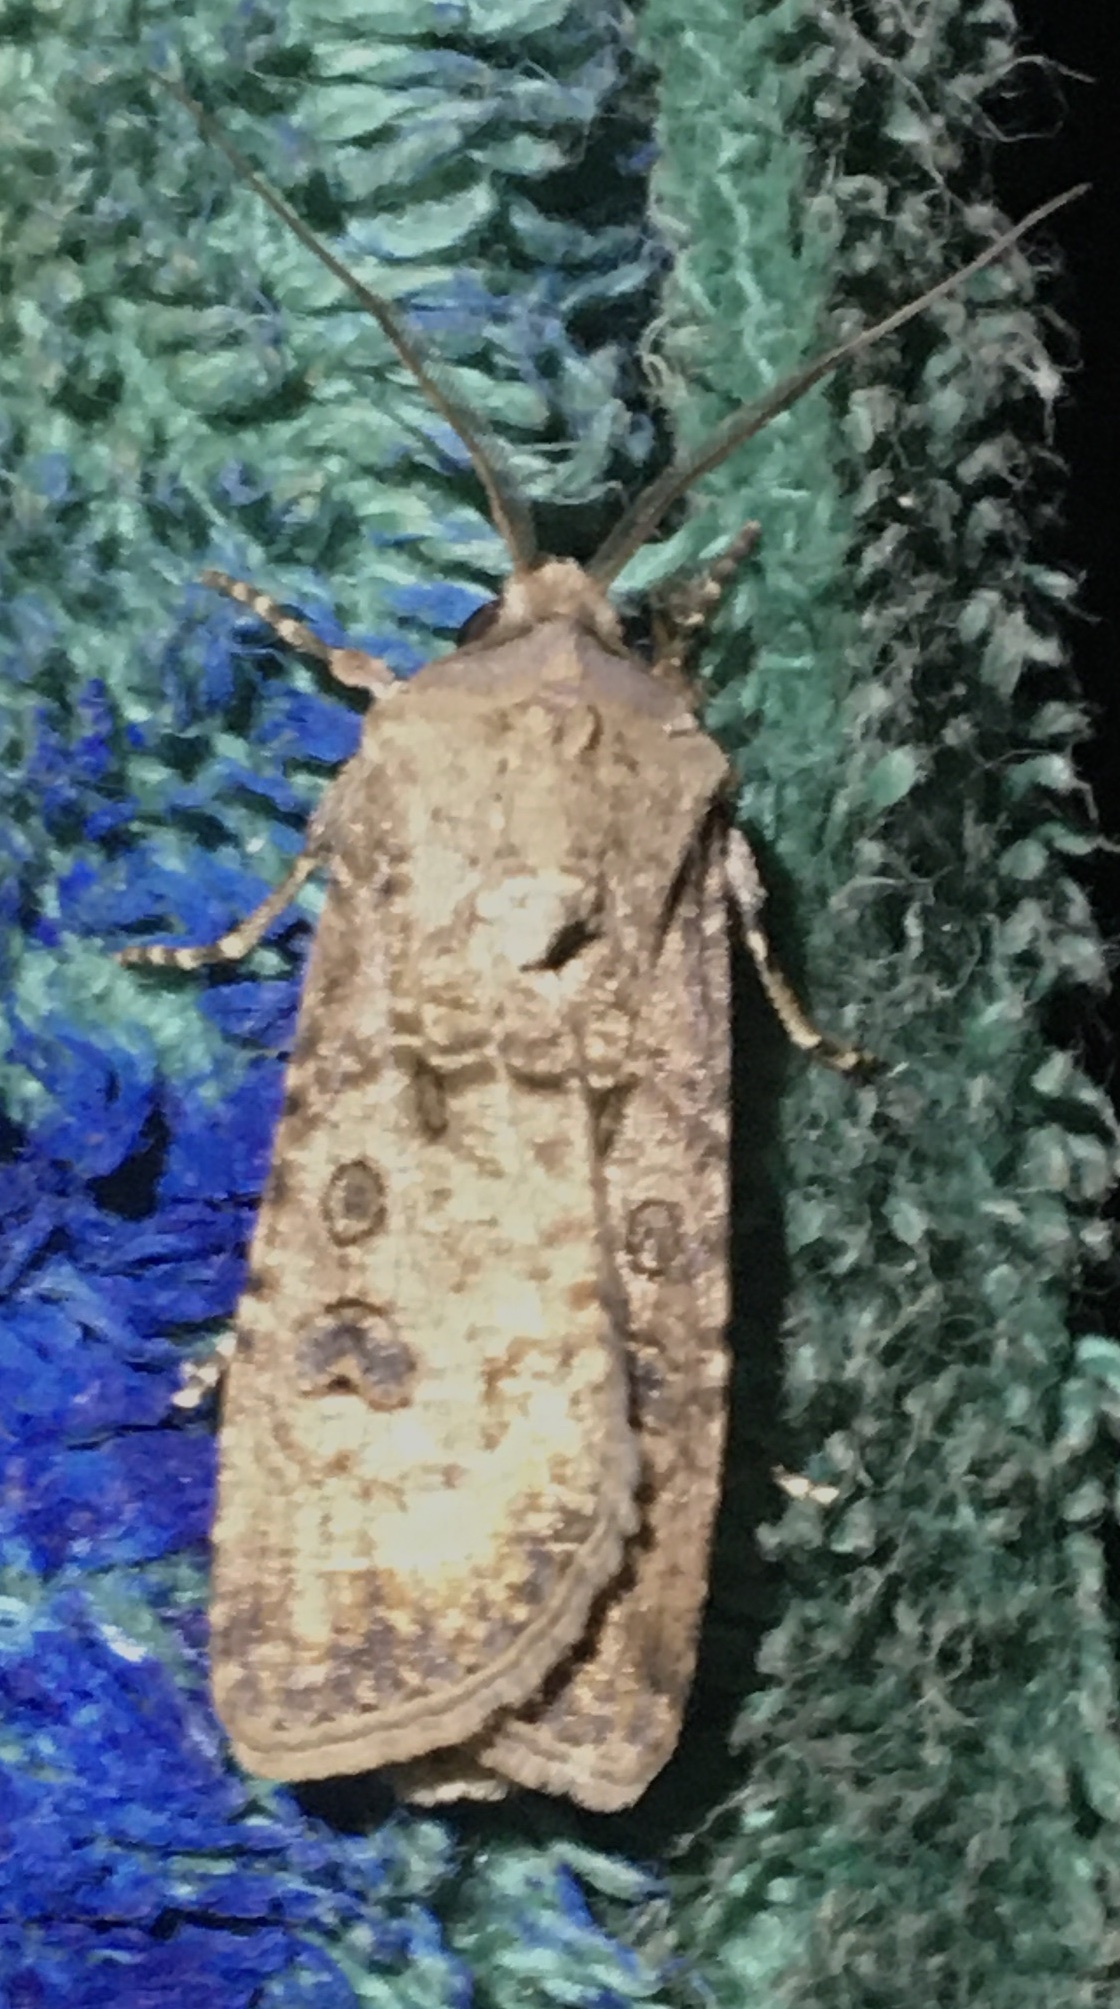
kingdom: Animalia
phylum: Arthropoda
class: Insecta
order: Lepidoptera
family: Noctuidae
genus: Agrotis
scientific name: Agrotis segetum
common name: Turnip moth
